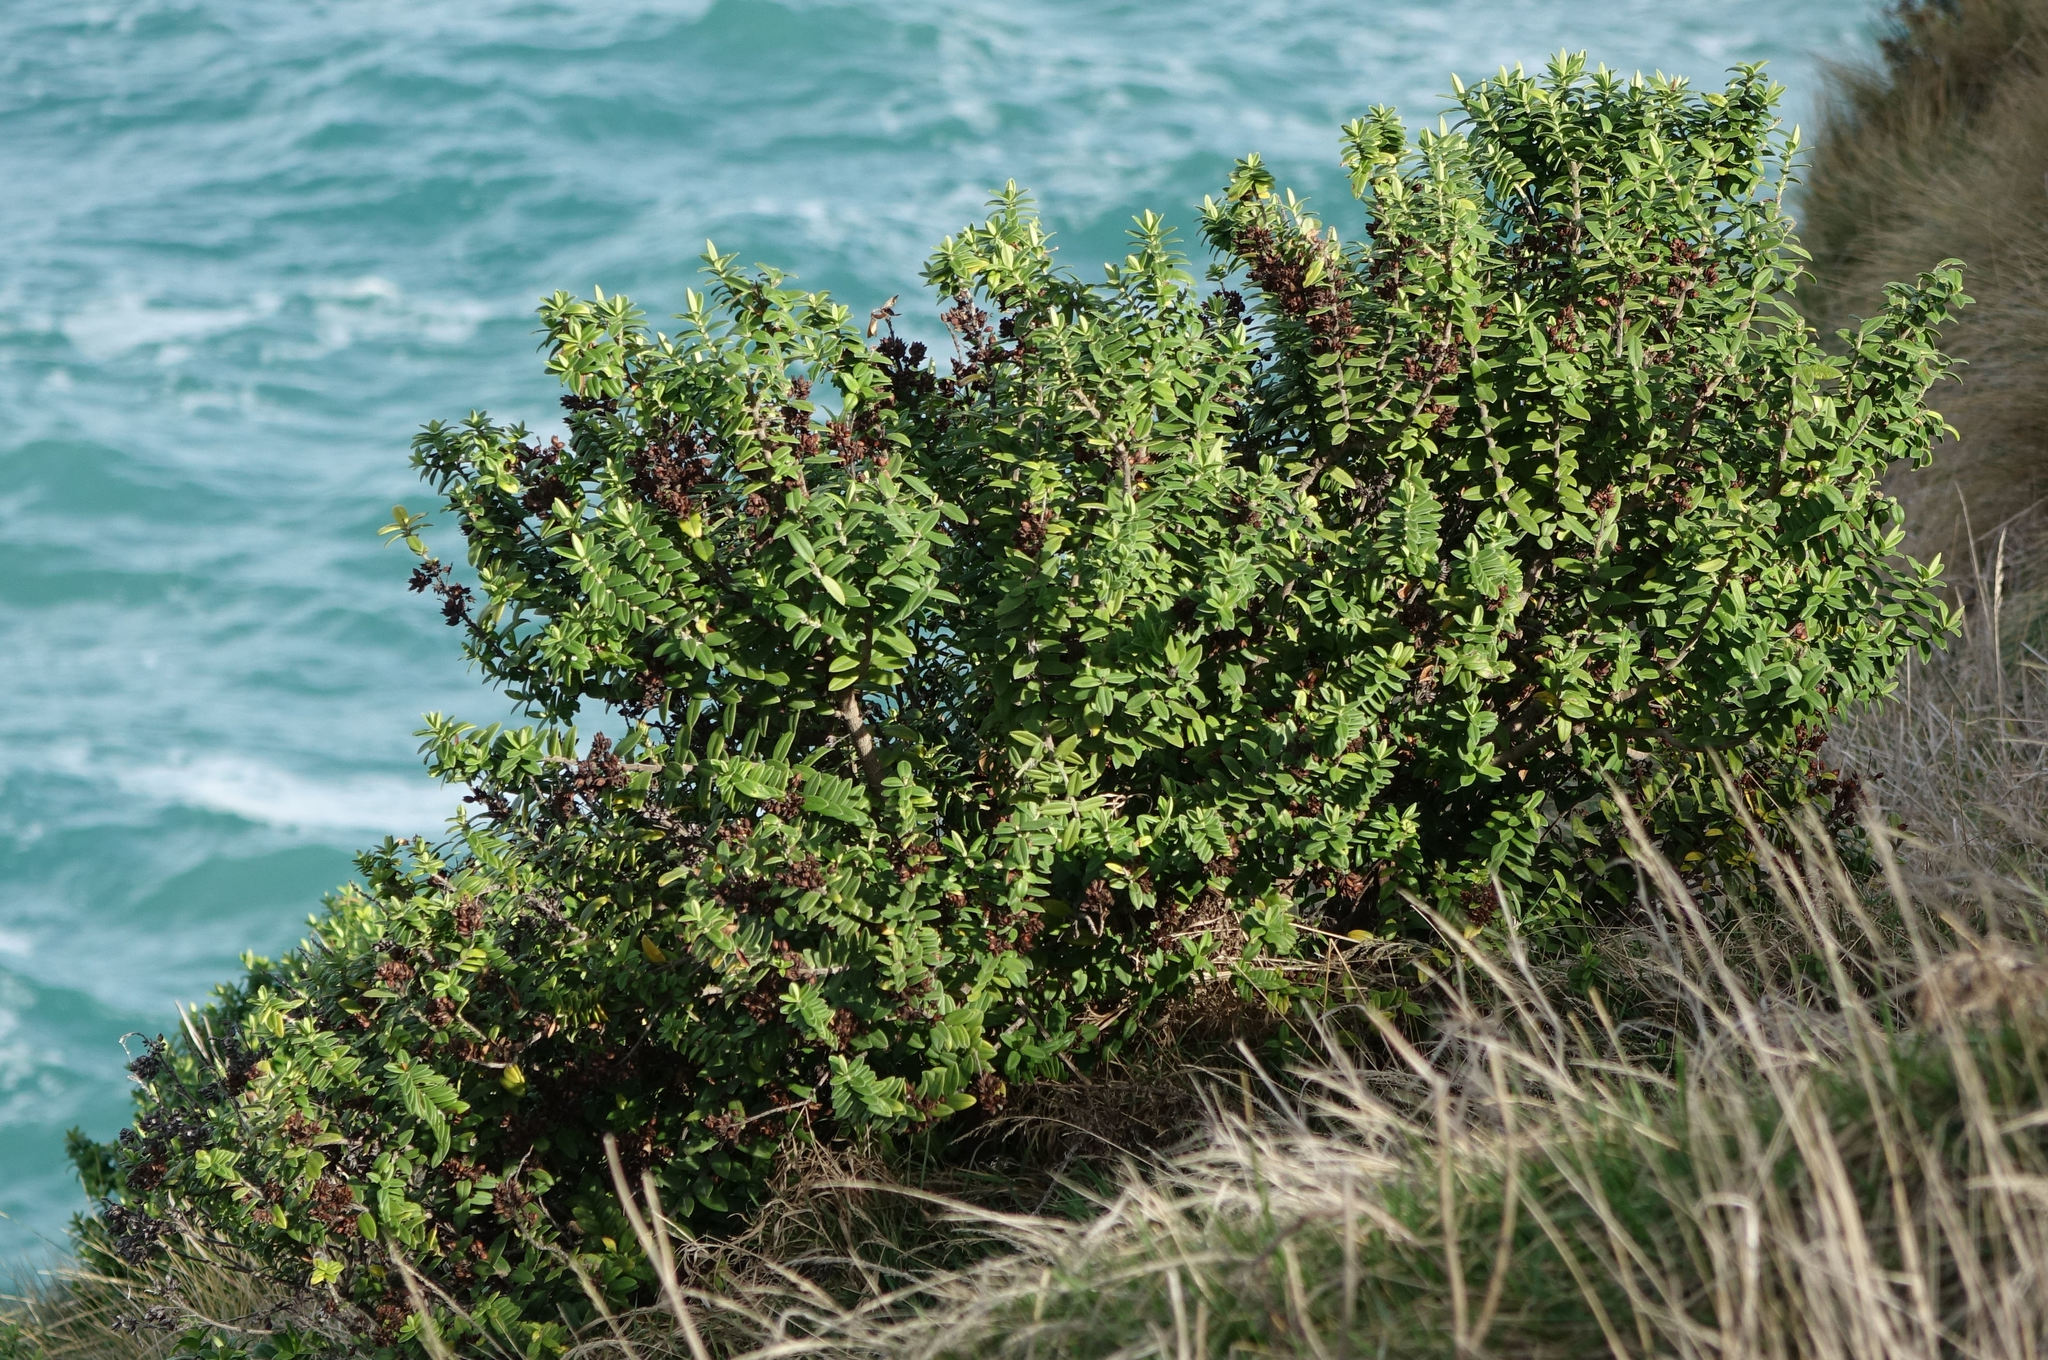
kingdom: Plantae
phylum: Tracheophyta
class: Magnoliopsida
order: Lamiales
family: Plantaginaceae
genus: Veronica
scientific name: Veronica elliptica
